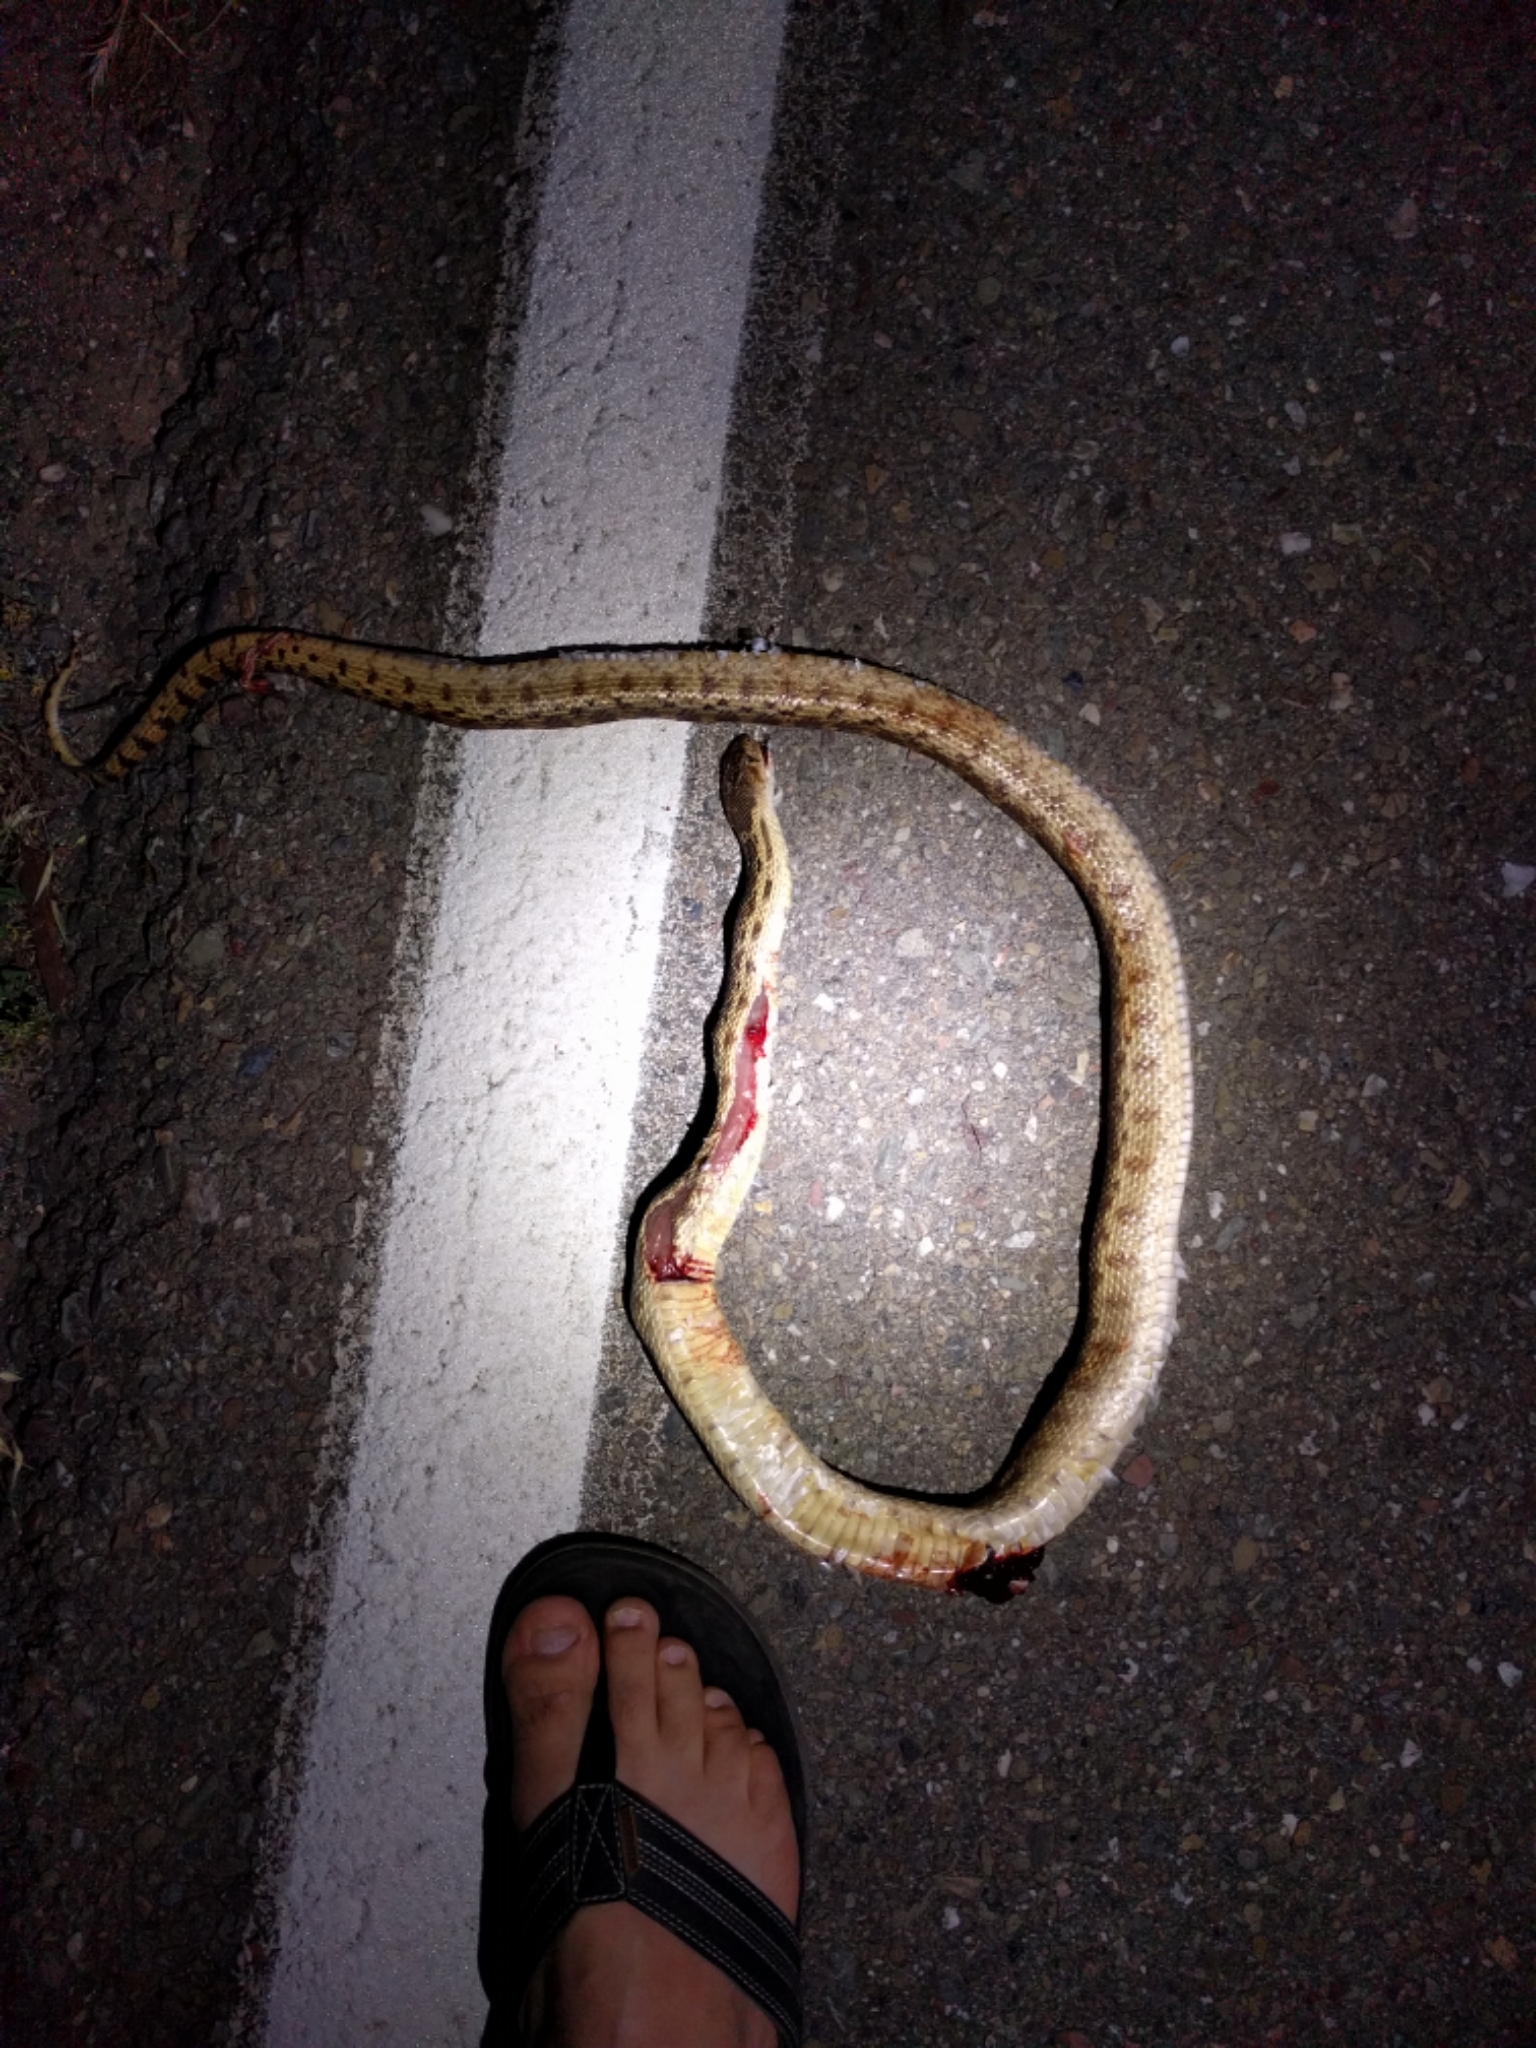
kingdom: Animalia
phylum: Chordata
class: Squamata
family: Colubridae
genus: Pituophis
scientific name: Pituophis catenifer
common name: Gopher snake
